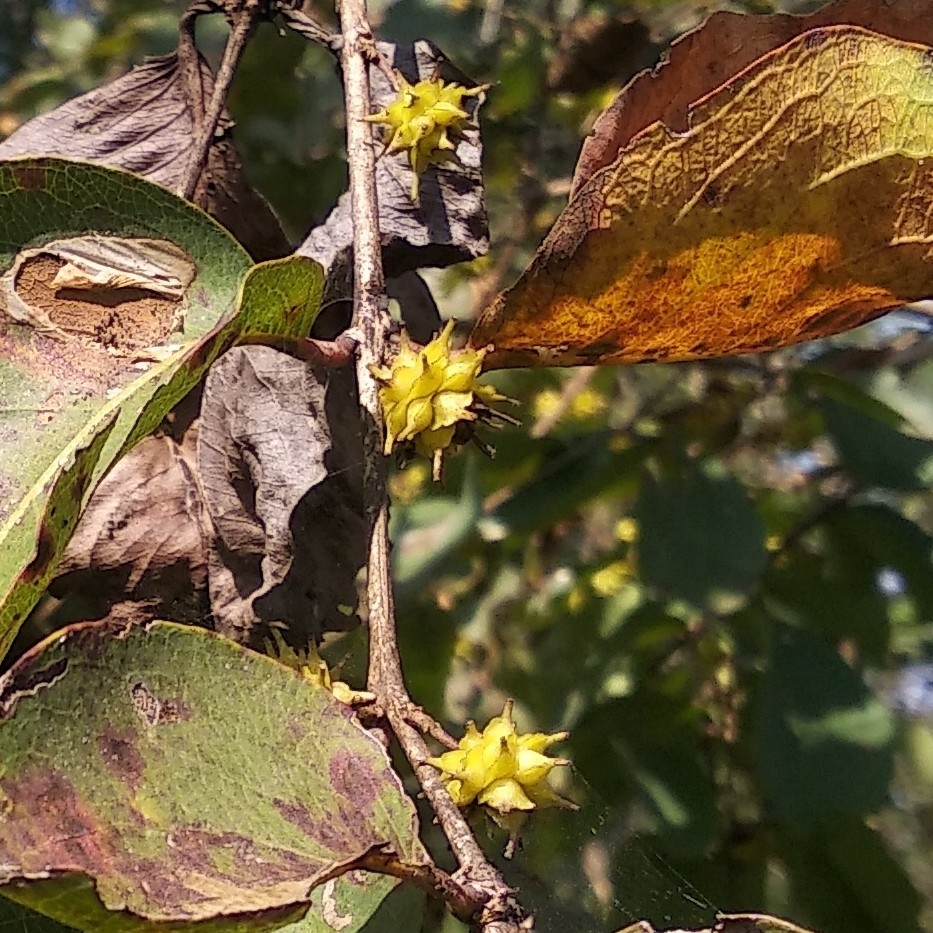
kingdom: Plantae
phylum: Tracheophyta
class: Magnoliopsida
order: Myrtales
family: Combretaceae
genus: Terminalia
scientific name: Terminalia latifolia
